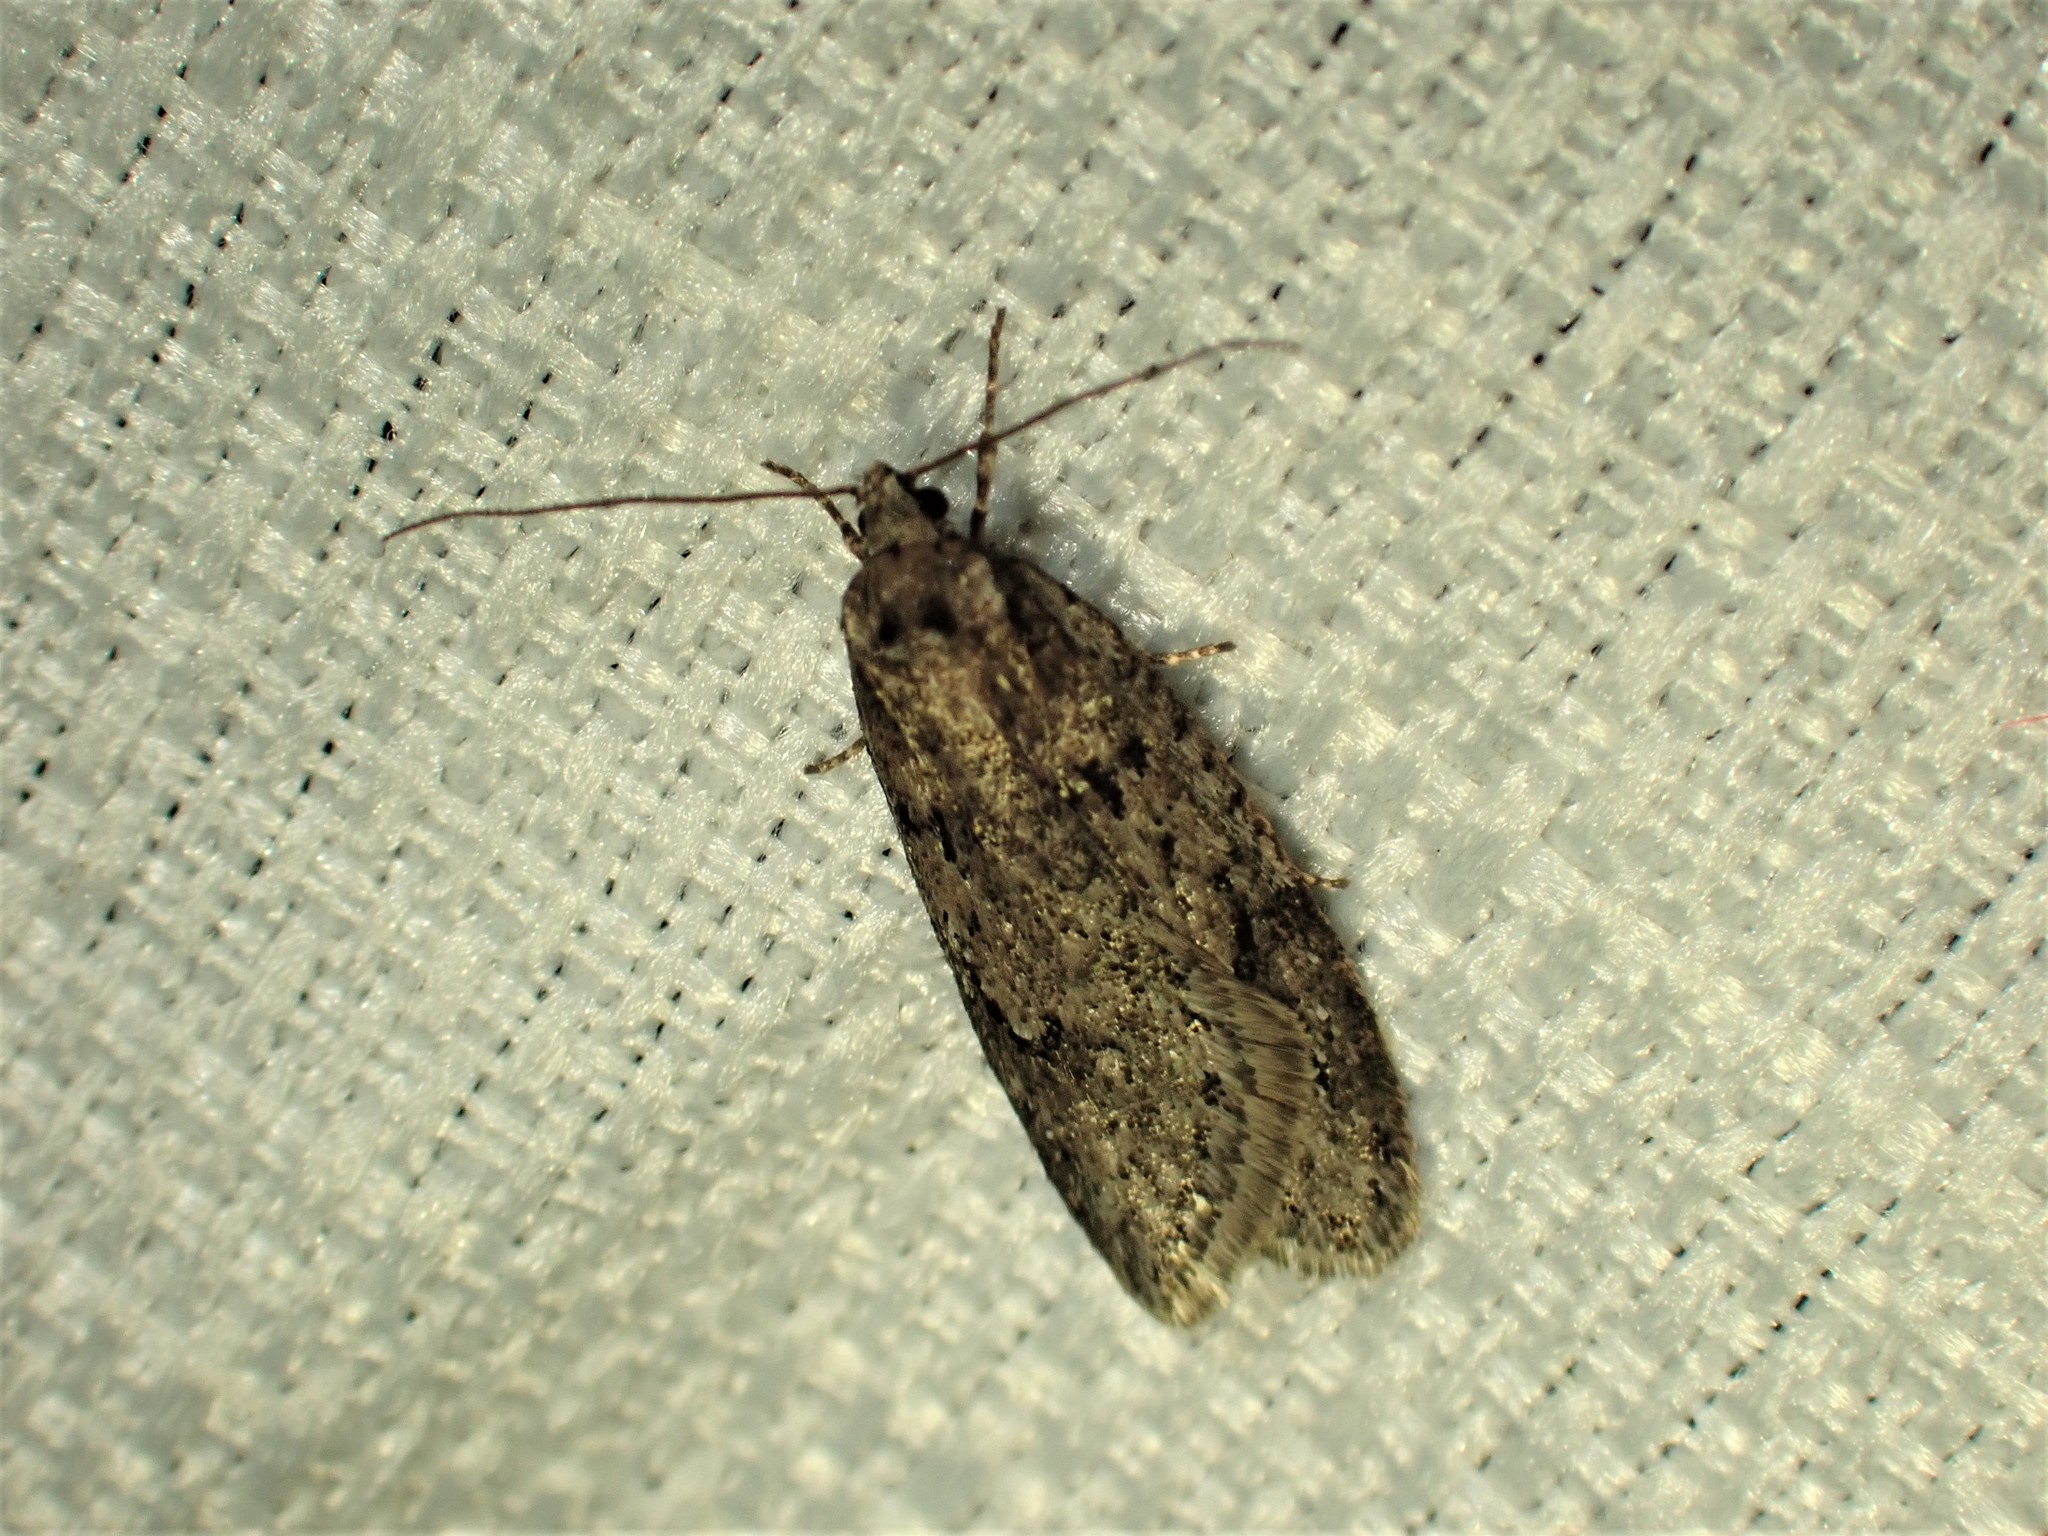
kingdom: Animalia
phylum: Arthropoda
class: Insecta
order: Lepidoptera
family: Depressariidae
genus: Semioscopis
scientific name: Semioscopis megamicrella
